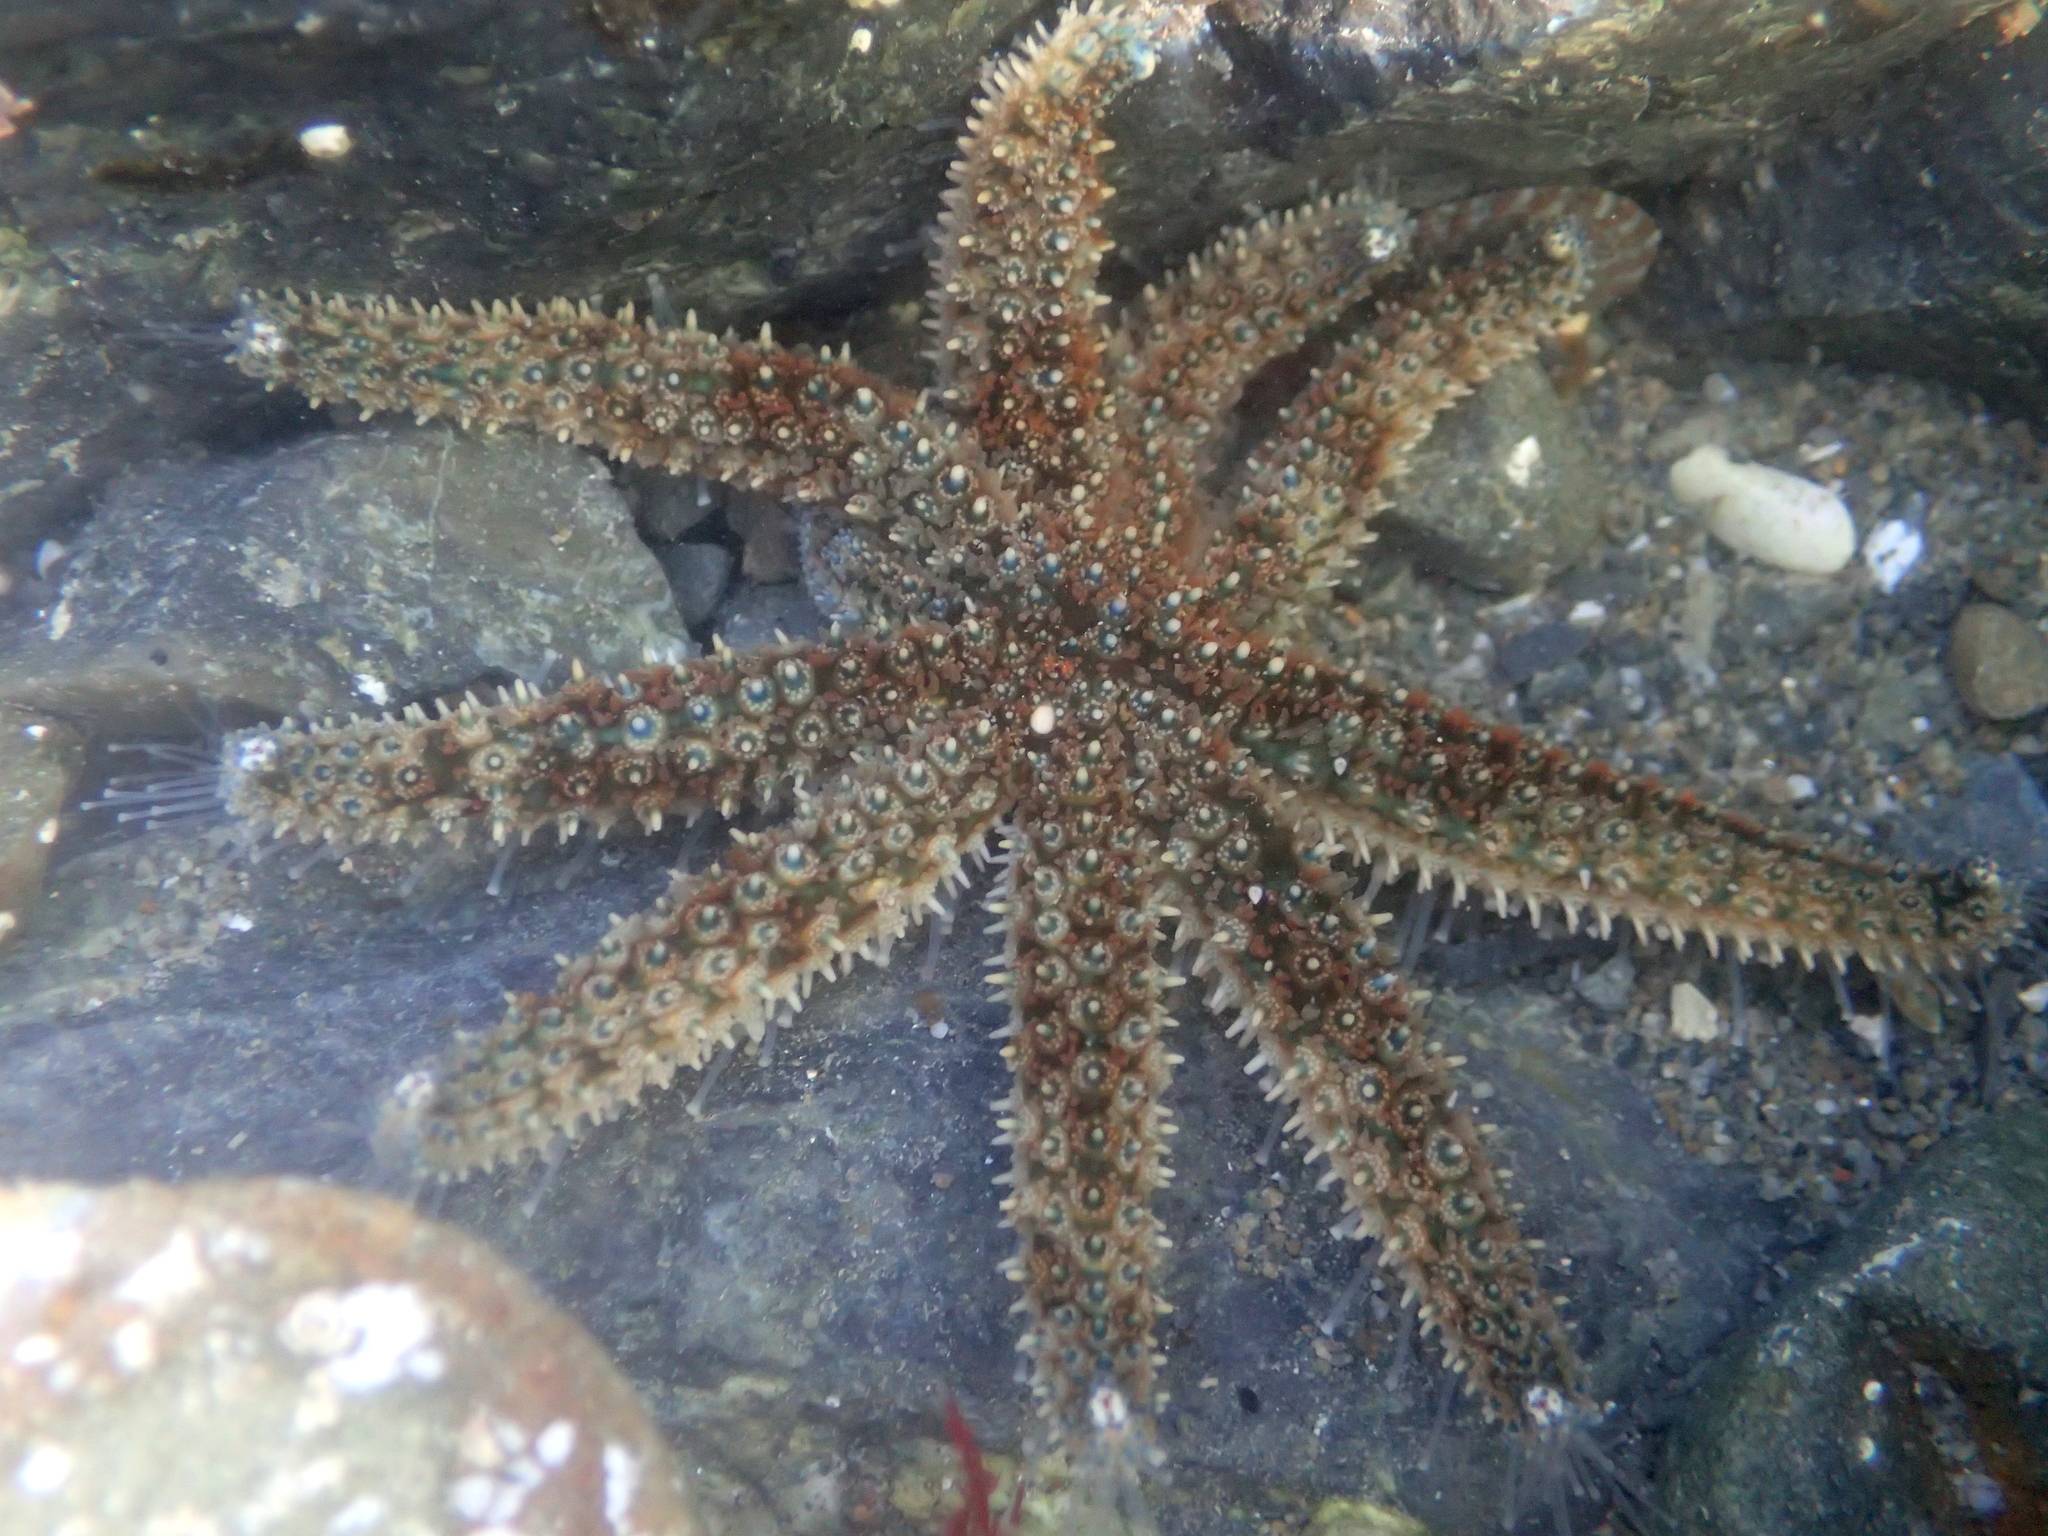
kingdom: Animalia
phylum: Echinodermata
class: Asteroidea
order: Forcipulatida
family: Asteriidae
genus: Coscinasterias
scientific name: Coscinasterias muricata
